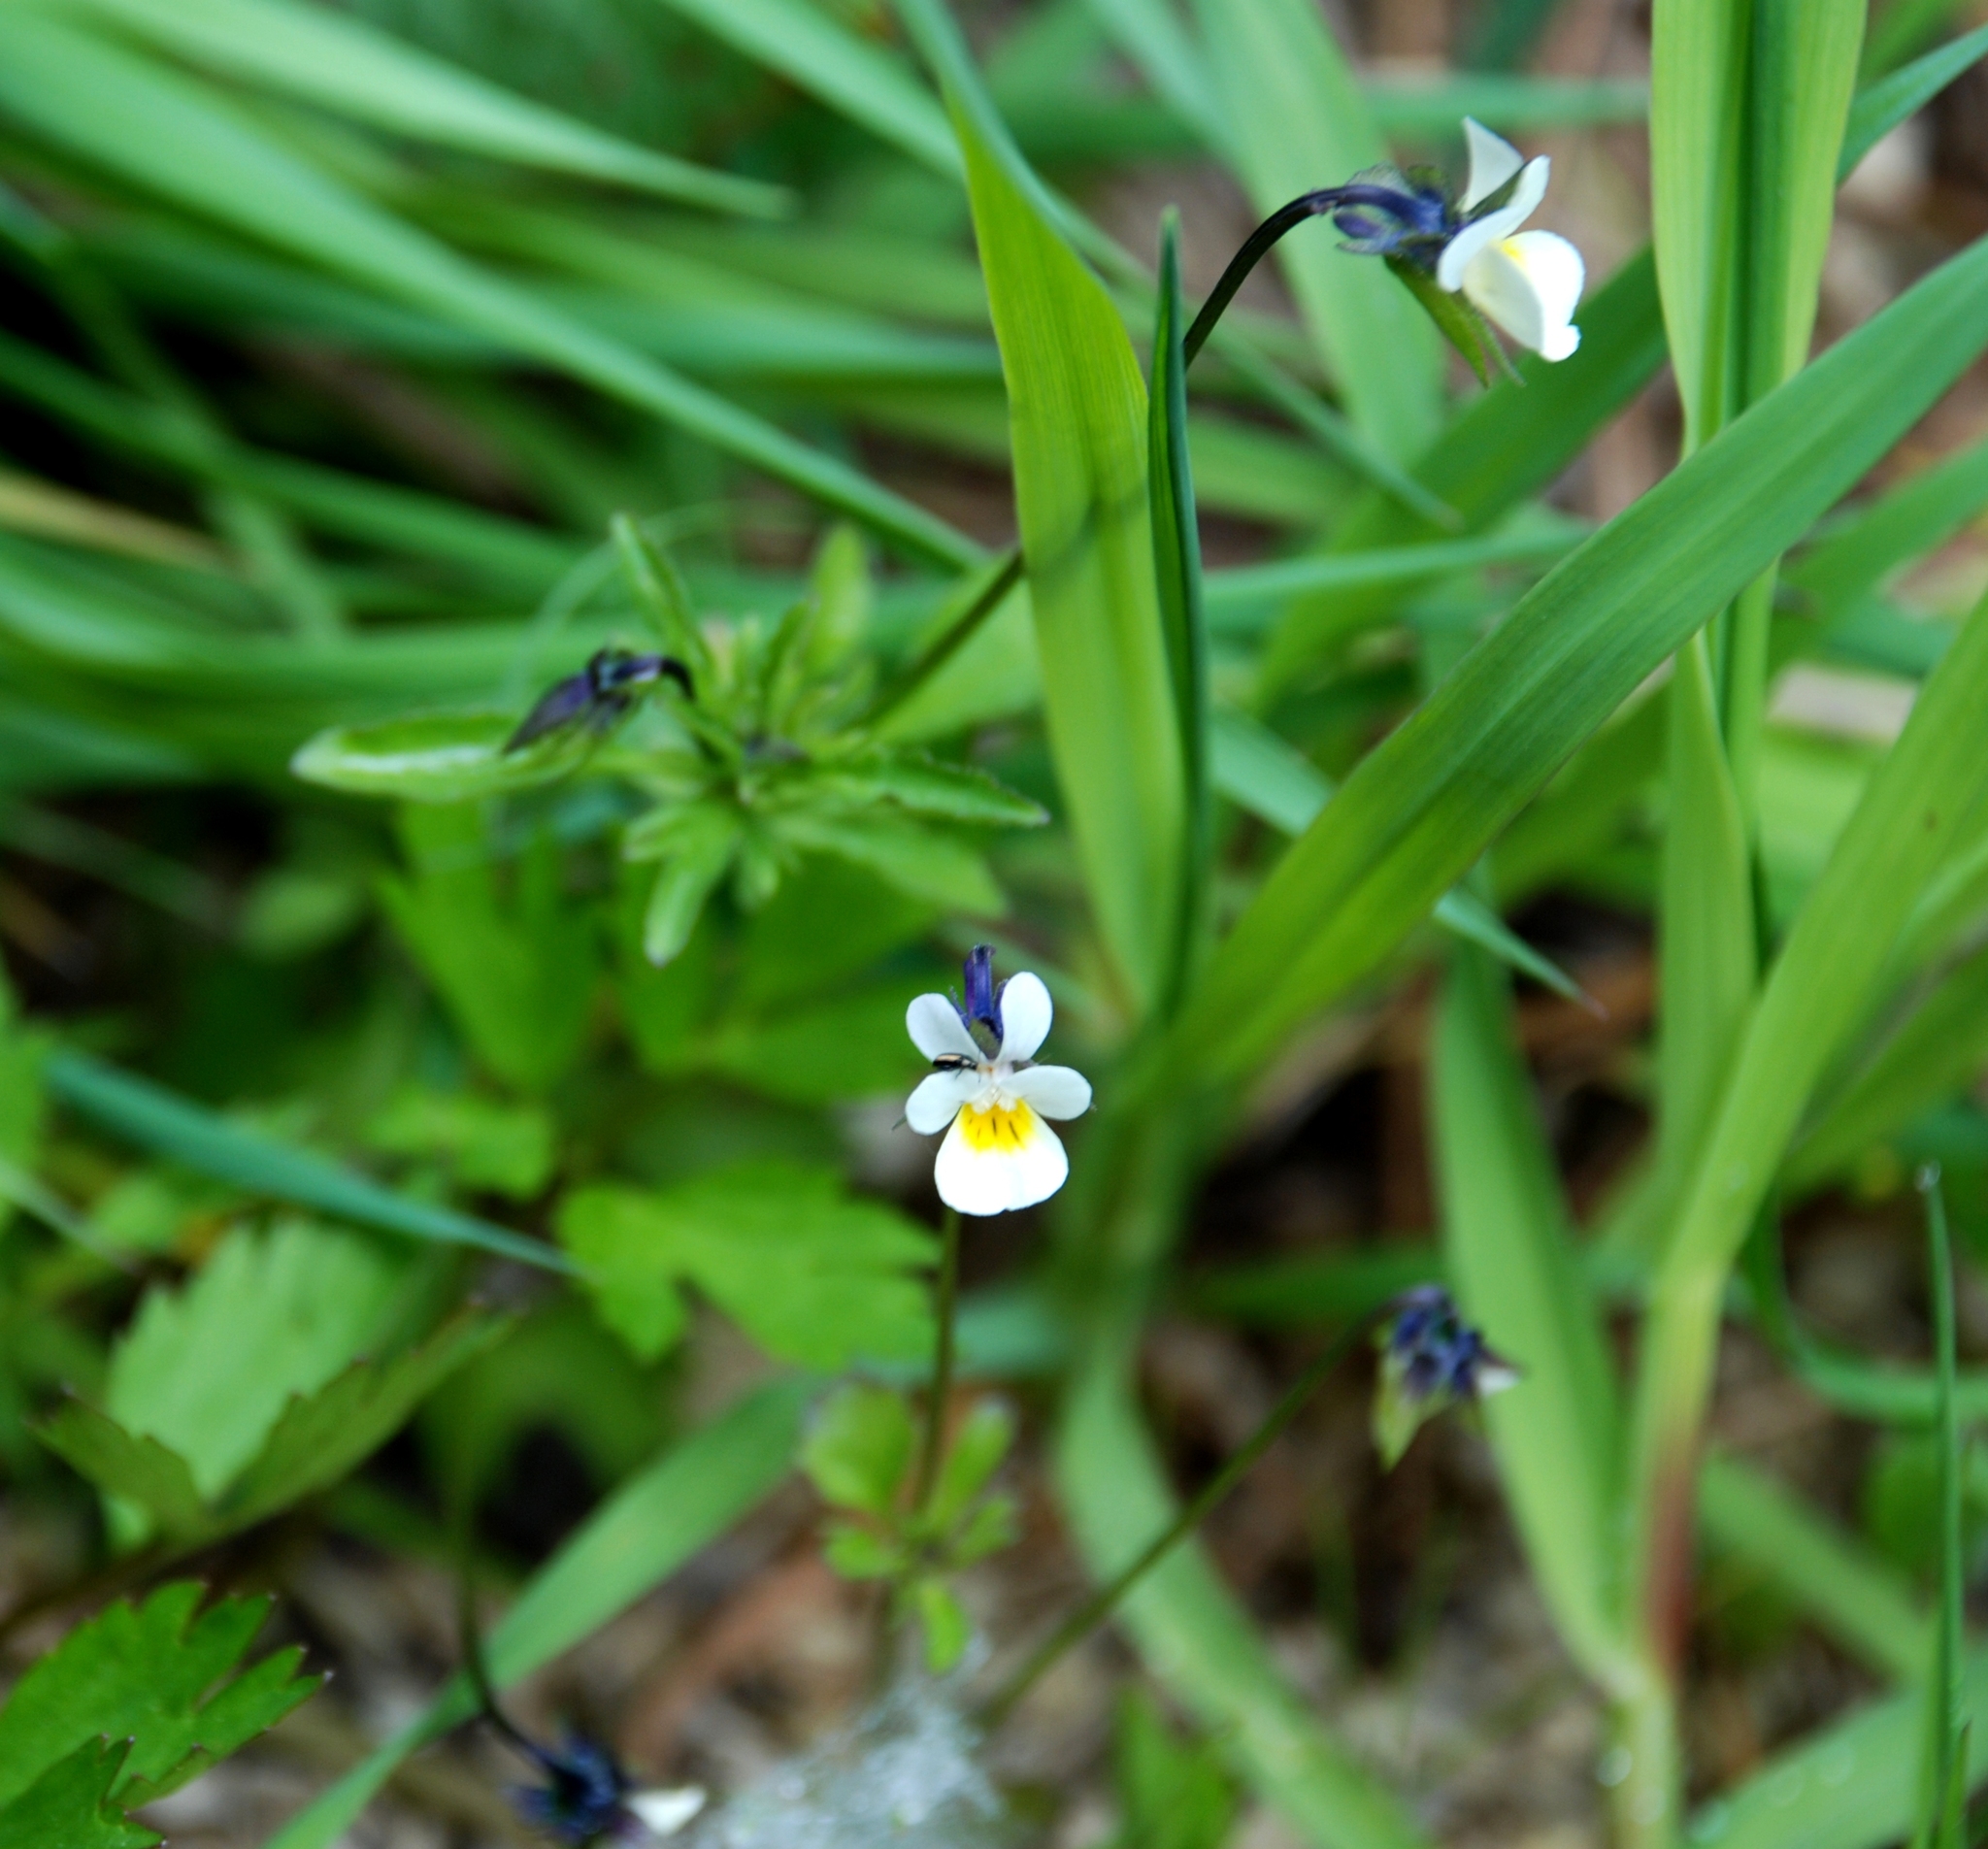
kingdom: Plantae
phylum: Tracheophyta
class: Magnoliopsida
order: Malpighiales
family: Violaceae
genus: Viola
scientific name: Viola arvensis
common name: Field pansy
